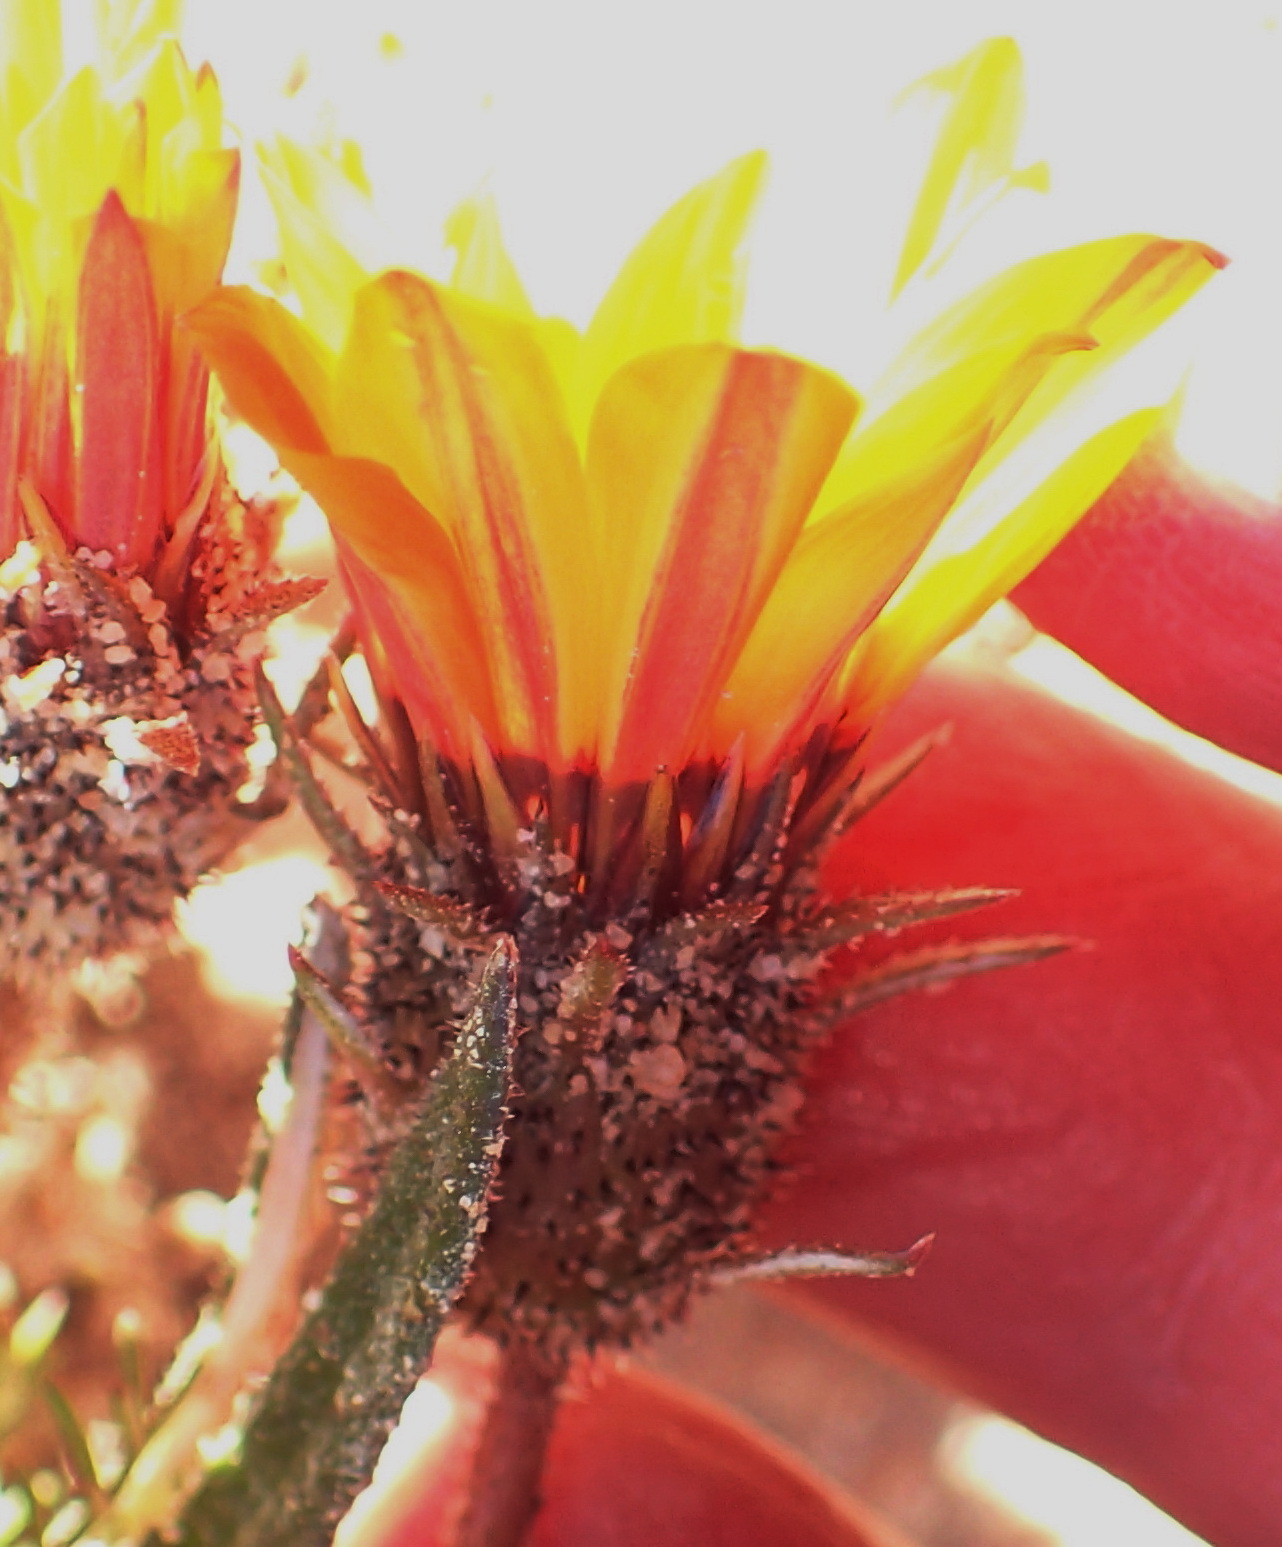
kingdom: Plantae
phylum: Tracheophyta
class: Magnoliopsida
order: Asterales
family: Asteraceae
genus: Gazania
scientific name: Gazania serrata
